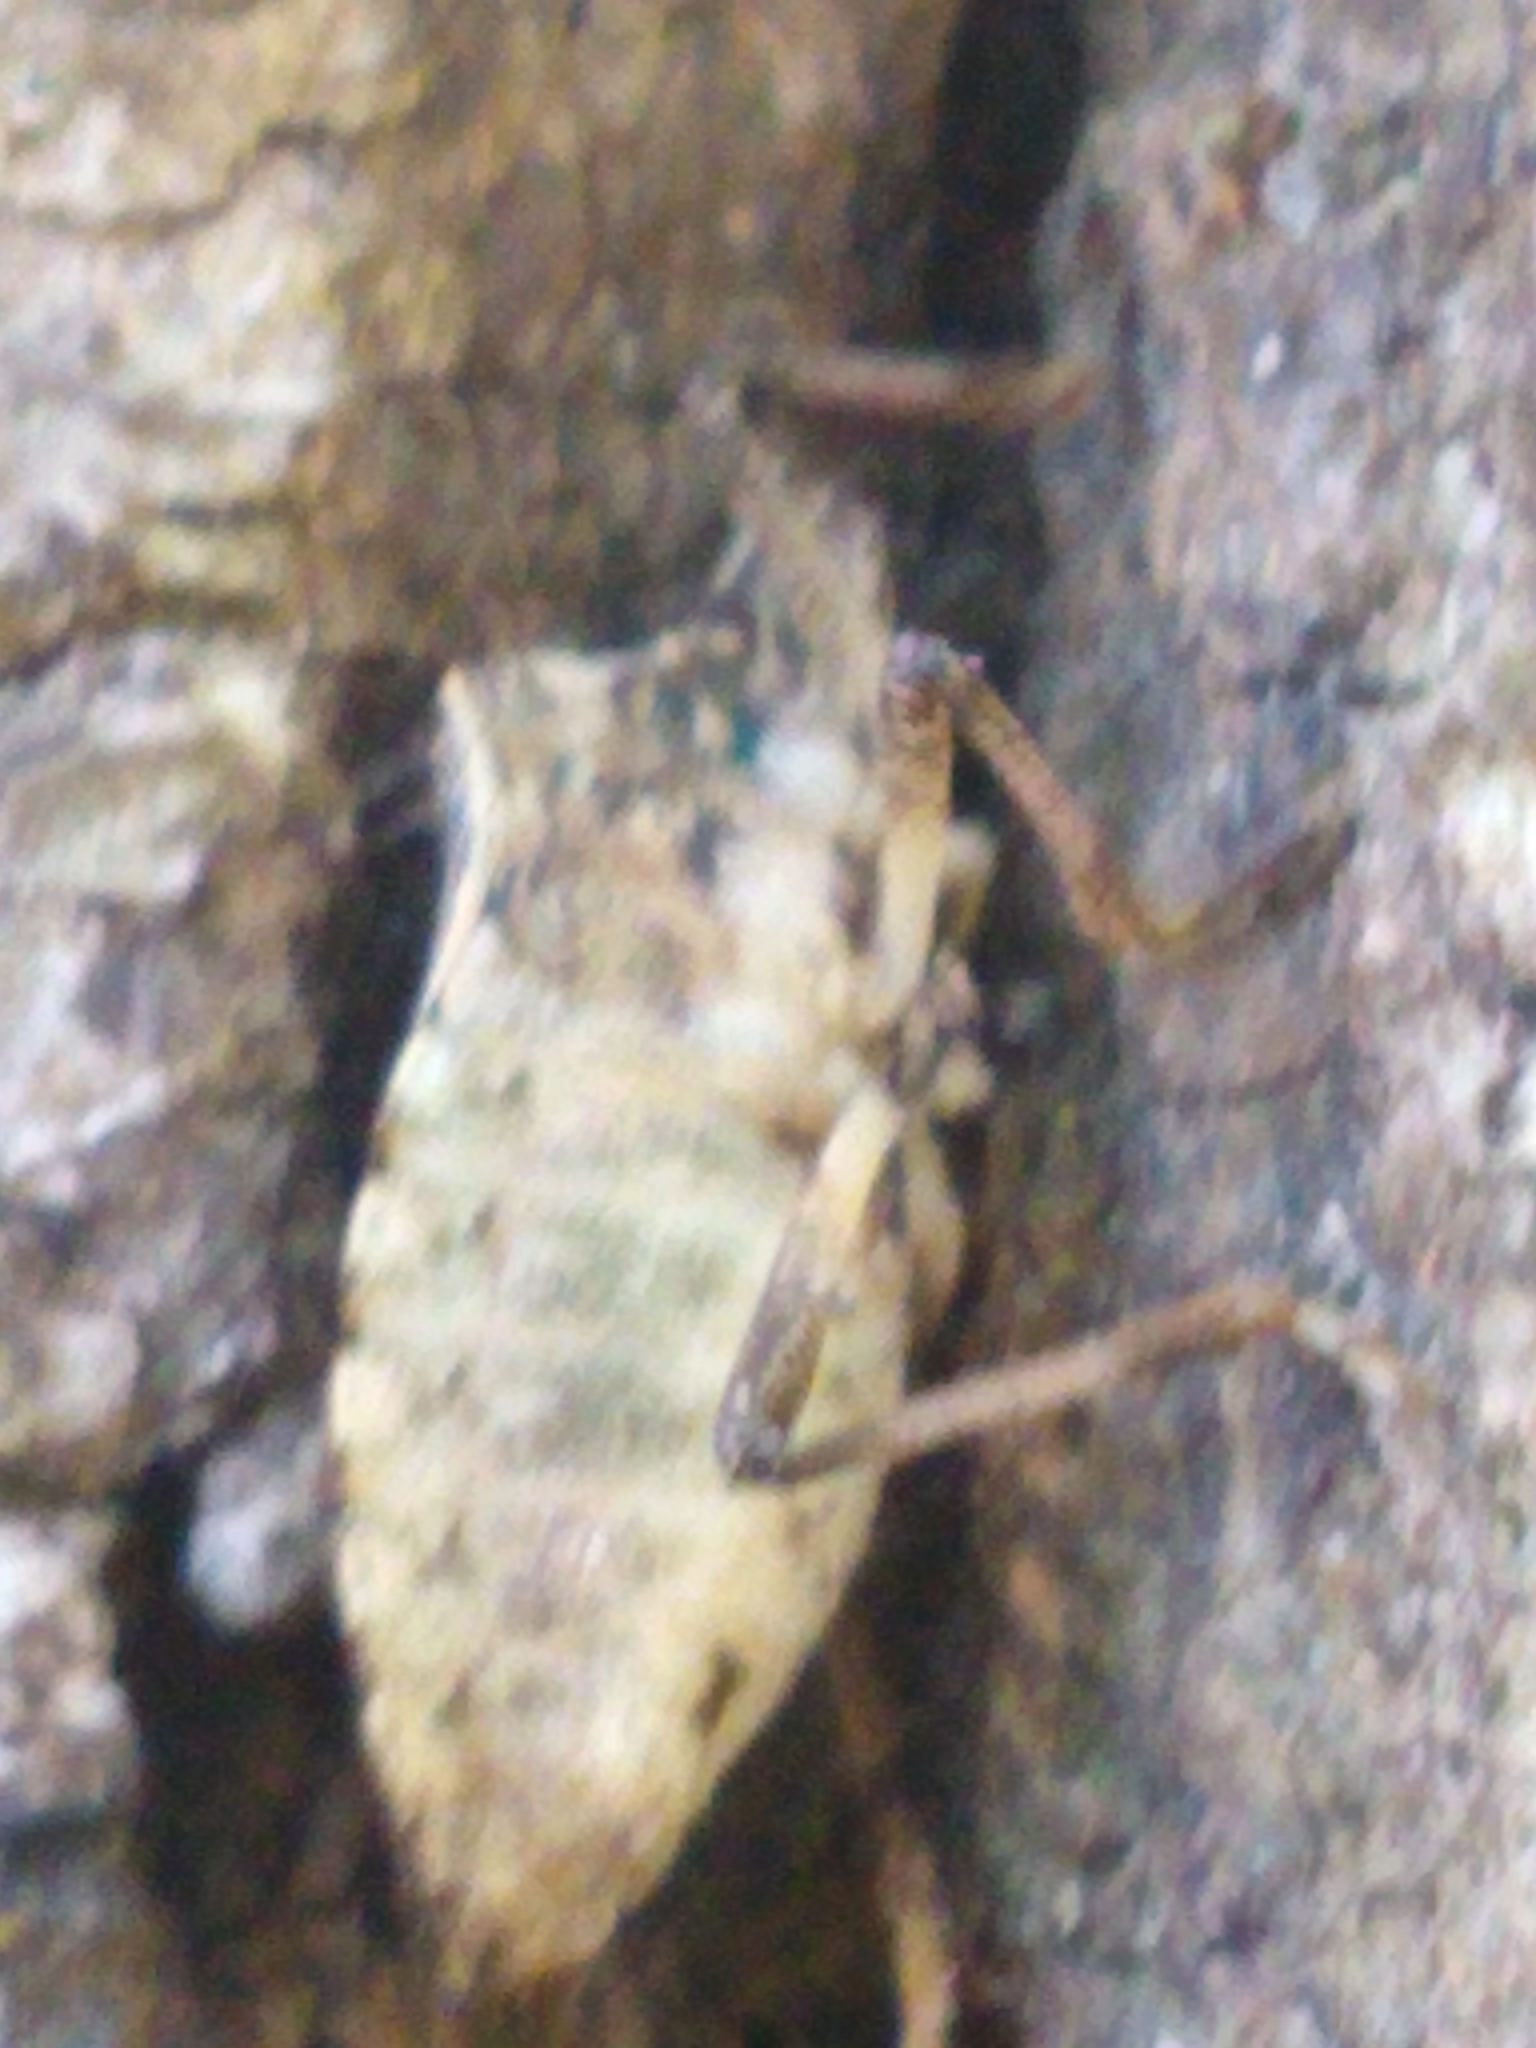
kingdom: Animalia
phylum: Arthropoda
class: Insecta
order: Hemiptera
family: Pentatomidae
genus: Halyomorpha
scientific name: Halyomorpha halys
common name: Brown marmorated stink bug
